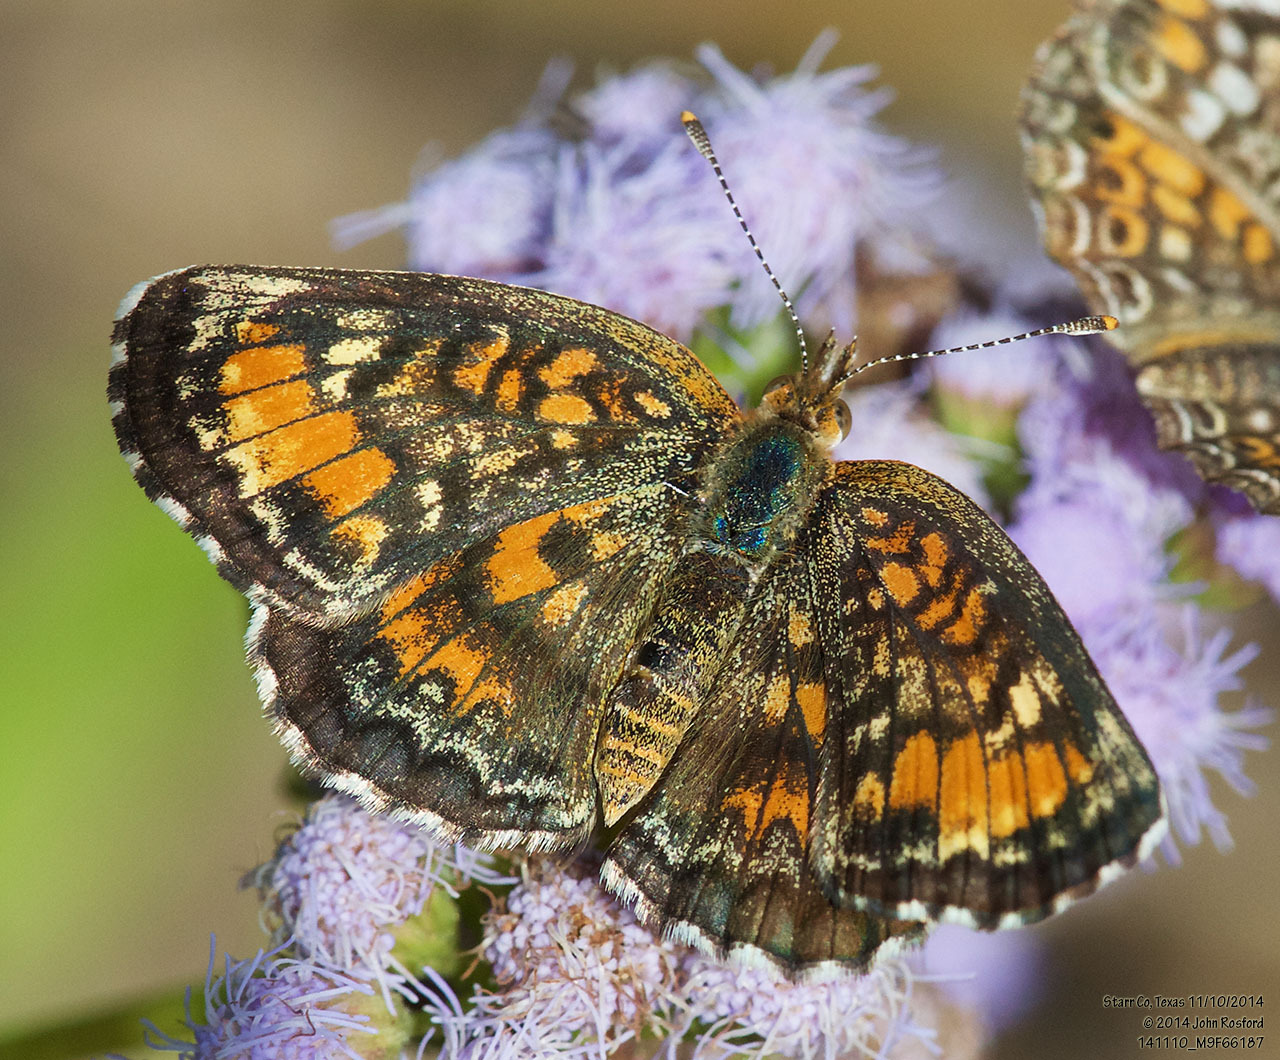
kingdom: Animalia
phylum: Arthropoda
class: Insecta
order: Lepidoptera
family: Nymphalidae
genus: Phyciodes
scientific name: Phyciodes phaon
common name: Phaon crescent
